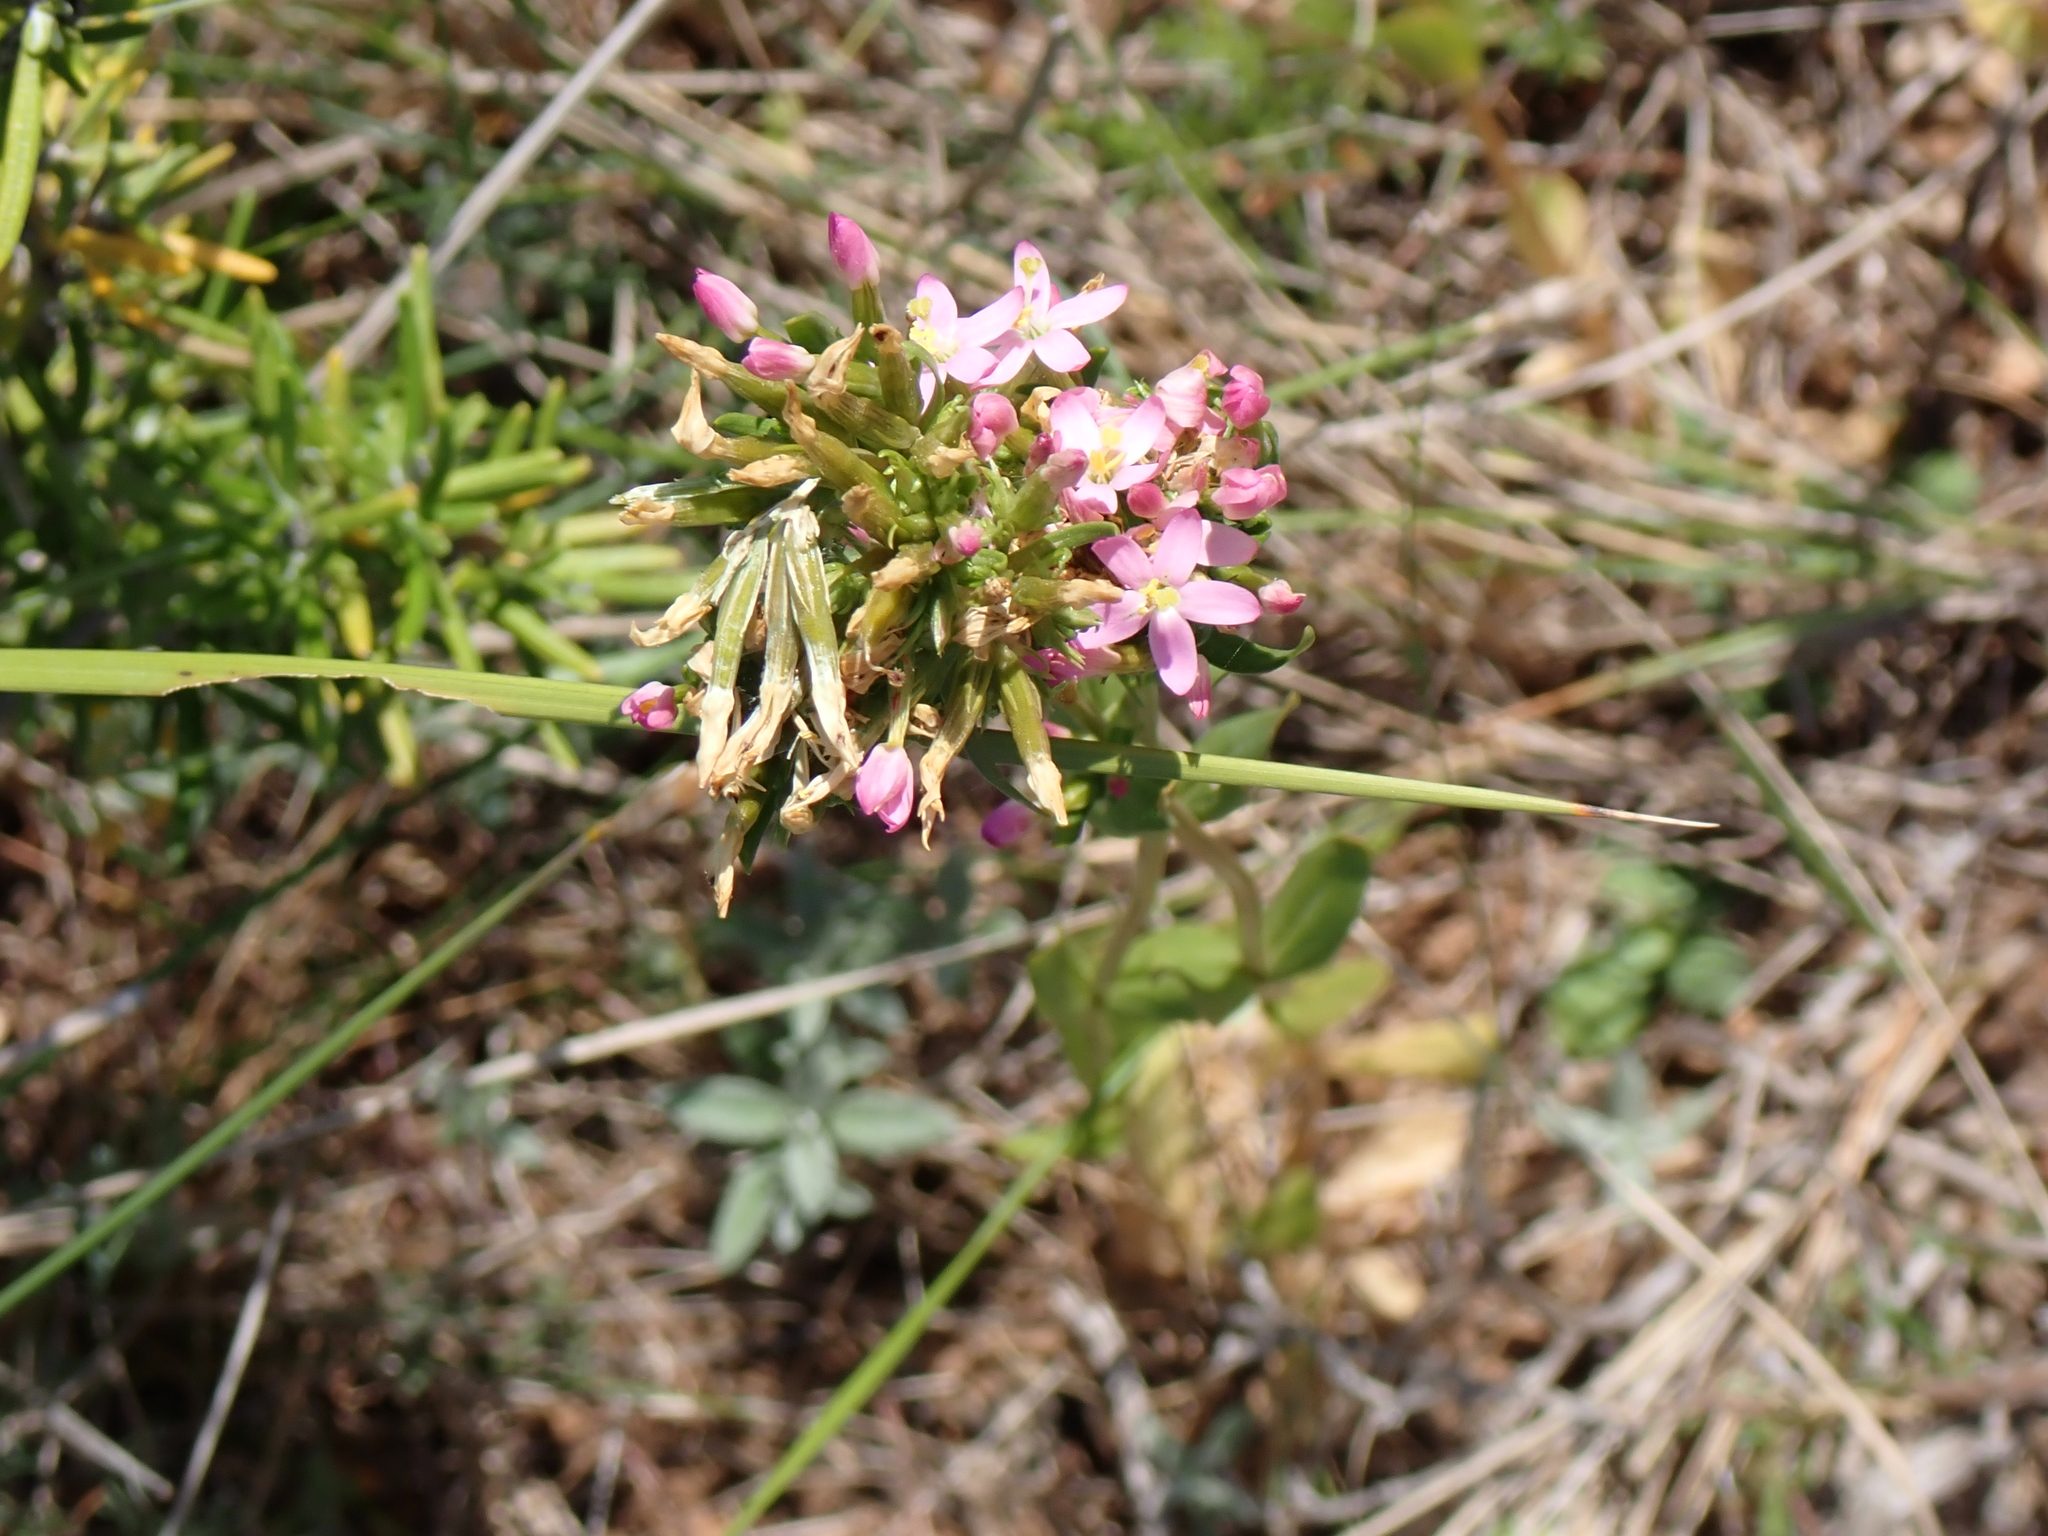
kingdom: Plantae
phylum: Tracheophyta
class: Magnoliopsida
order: Gentianales
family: Gentianaceae
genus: Centaurium
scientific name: Centaurium erythraea
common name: Common centaury
